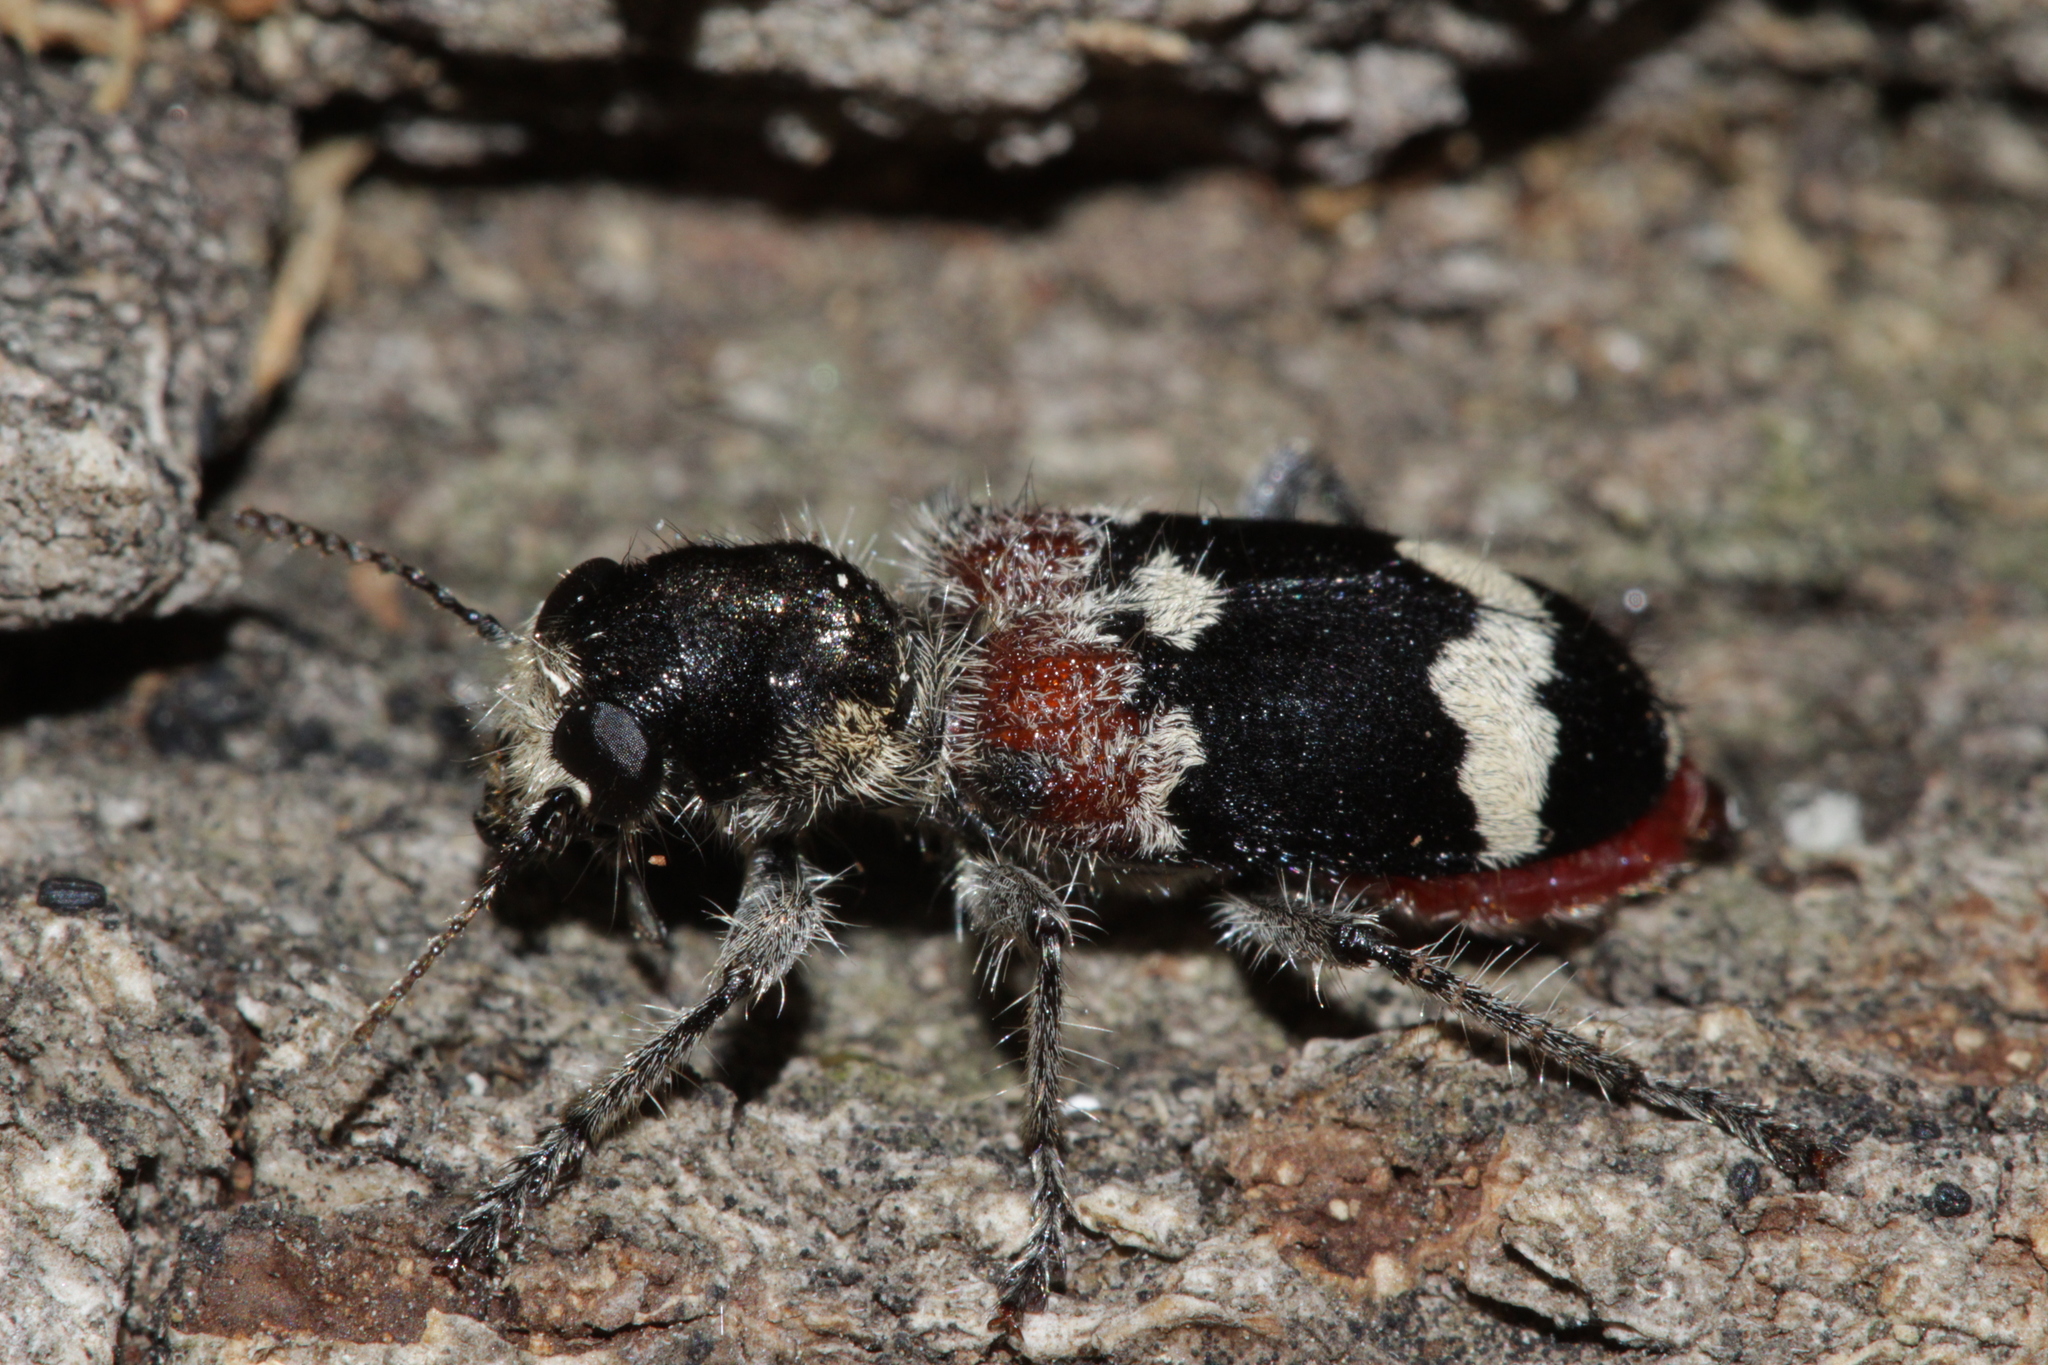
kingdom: Animalia
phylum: Arthropoda
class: Insecta
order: Coleoptera
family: Cleridae
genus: Clerus
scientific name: Clerus mutillarius
